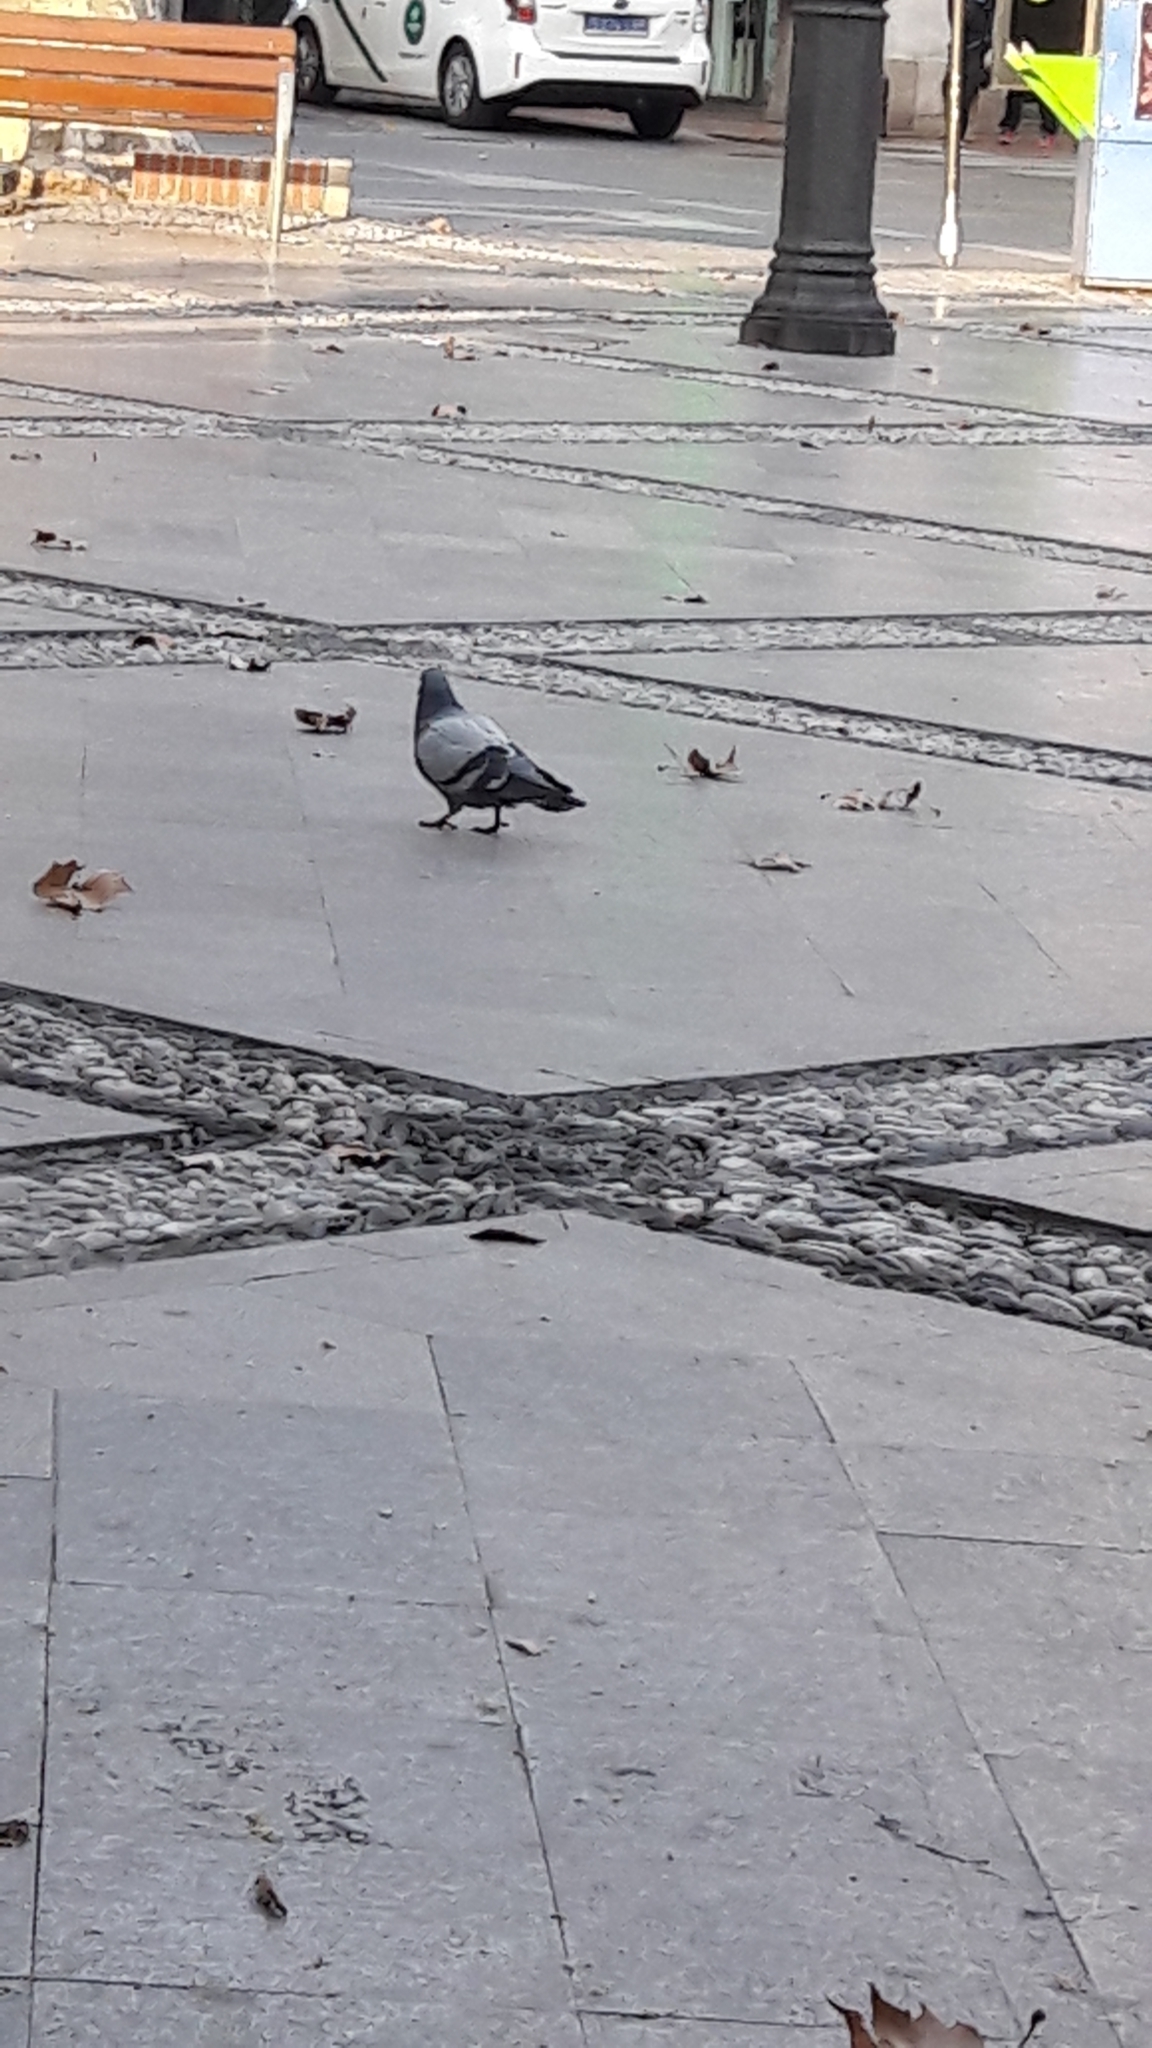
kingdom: Animalia
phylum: Chordata
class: Aves
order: Columbiformes
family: Columbidae
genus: Columba
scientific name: Columba livia
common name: Rock pigeon
